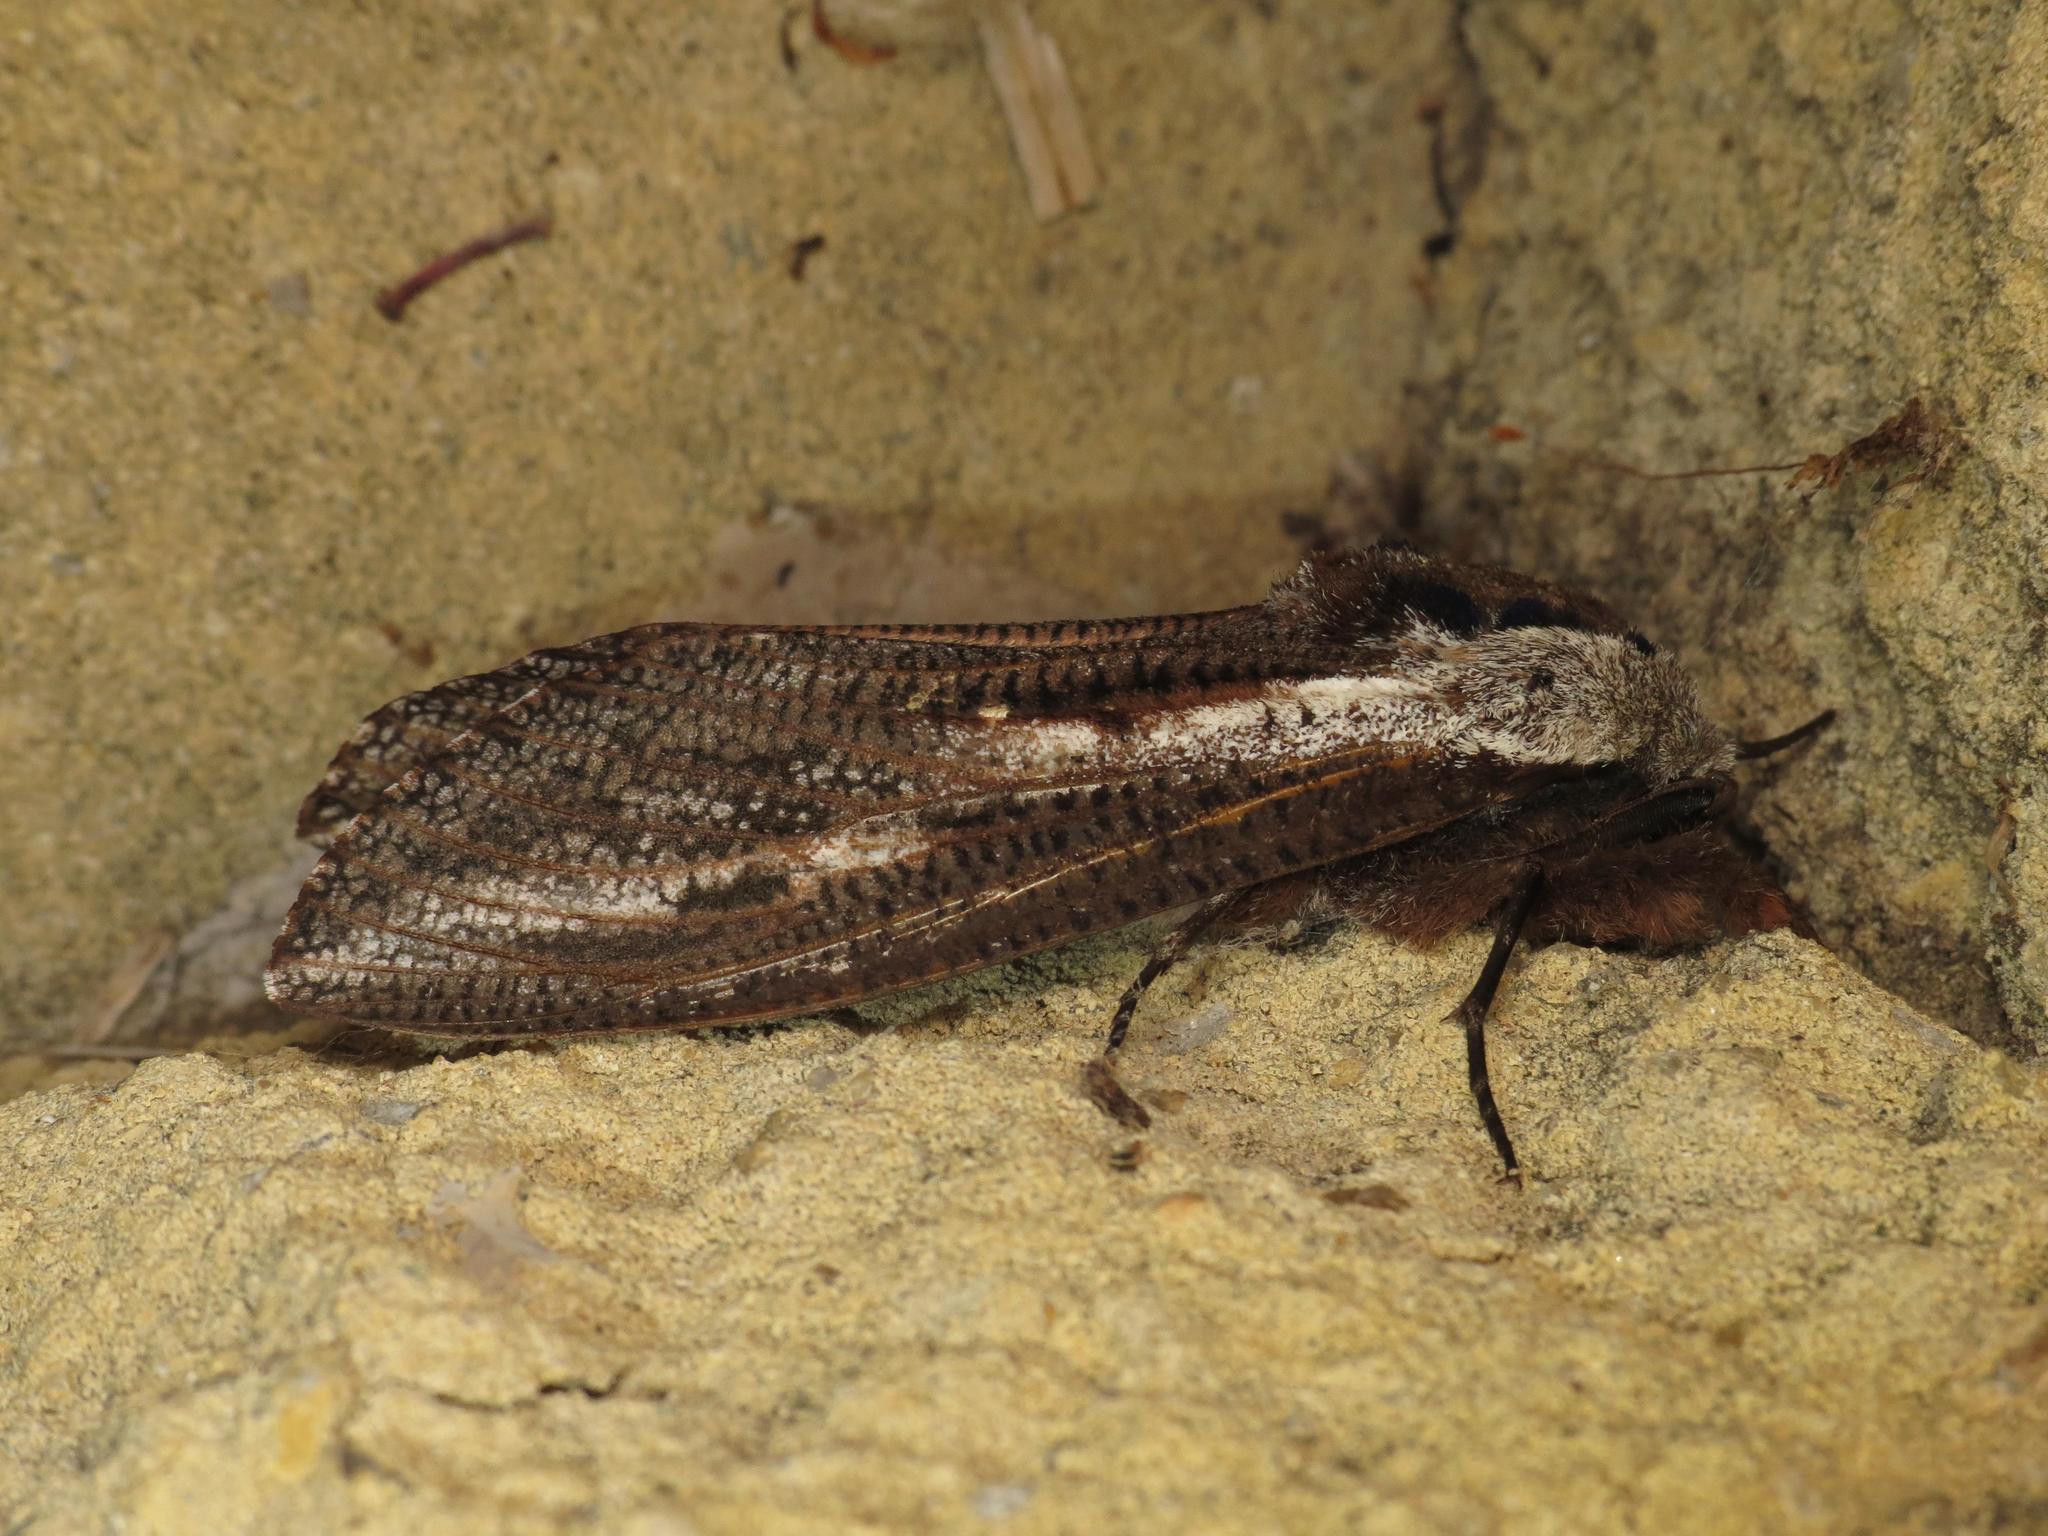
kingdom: Animalia
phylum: Arthropoda
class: Insecta
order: Lepidoptera
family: Cossidae
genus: Endoxyla
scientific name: Endoxyla encalypti
